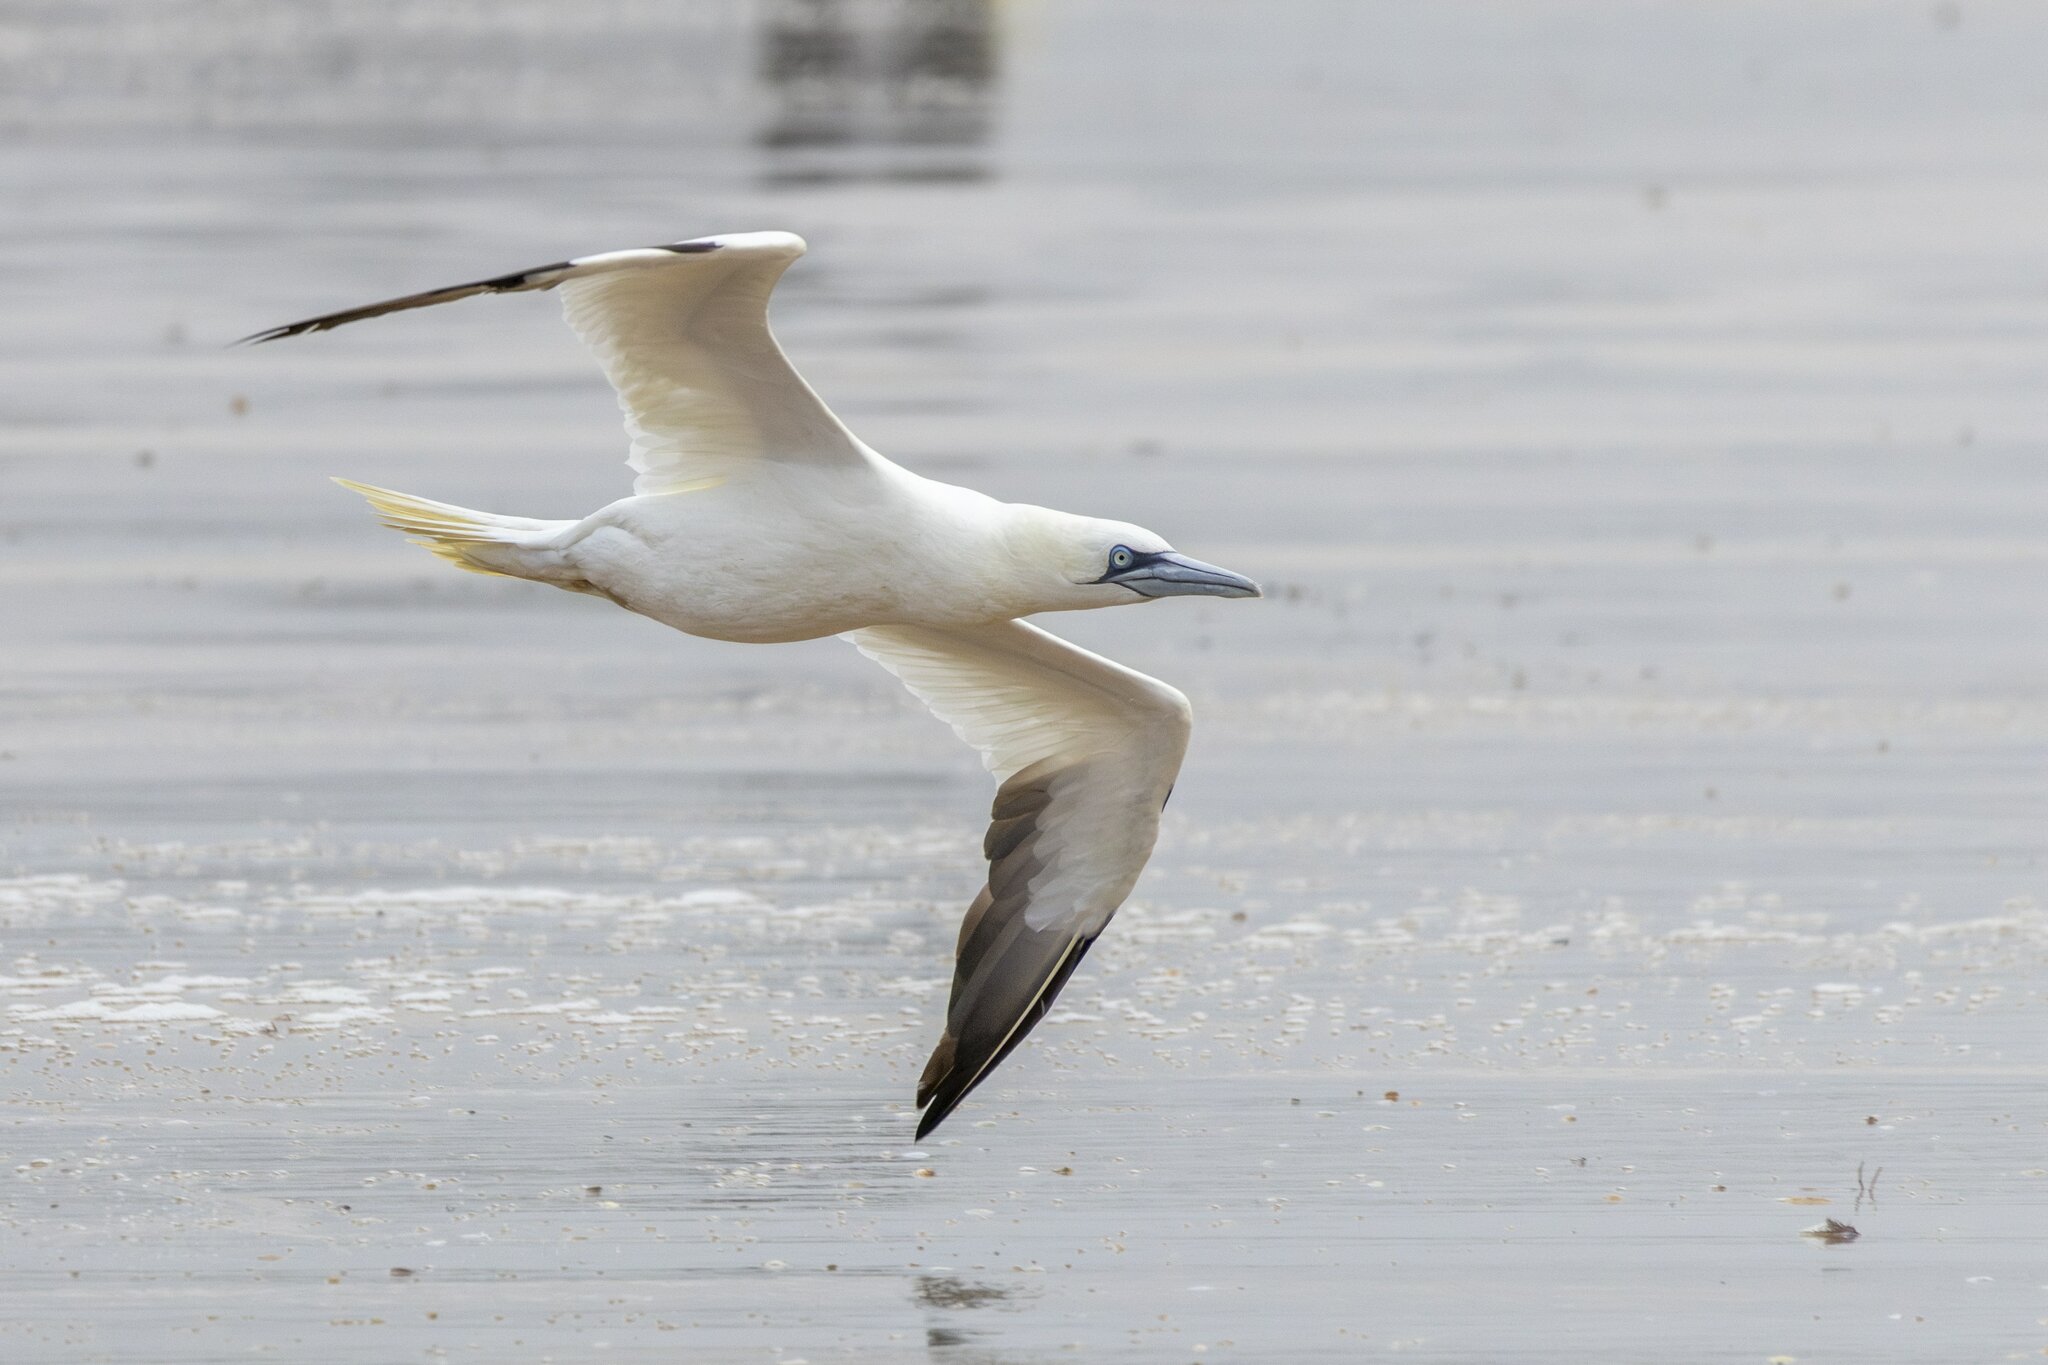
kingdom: Animalia
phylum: Chordata
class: Aves
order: Suliformes
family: Sulidae
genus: Morus
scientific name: Morus bassanus
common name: Northern gannet
